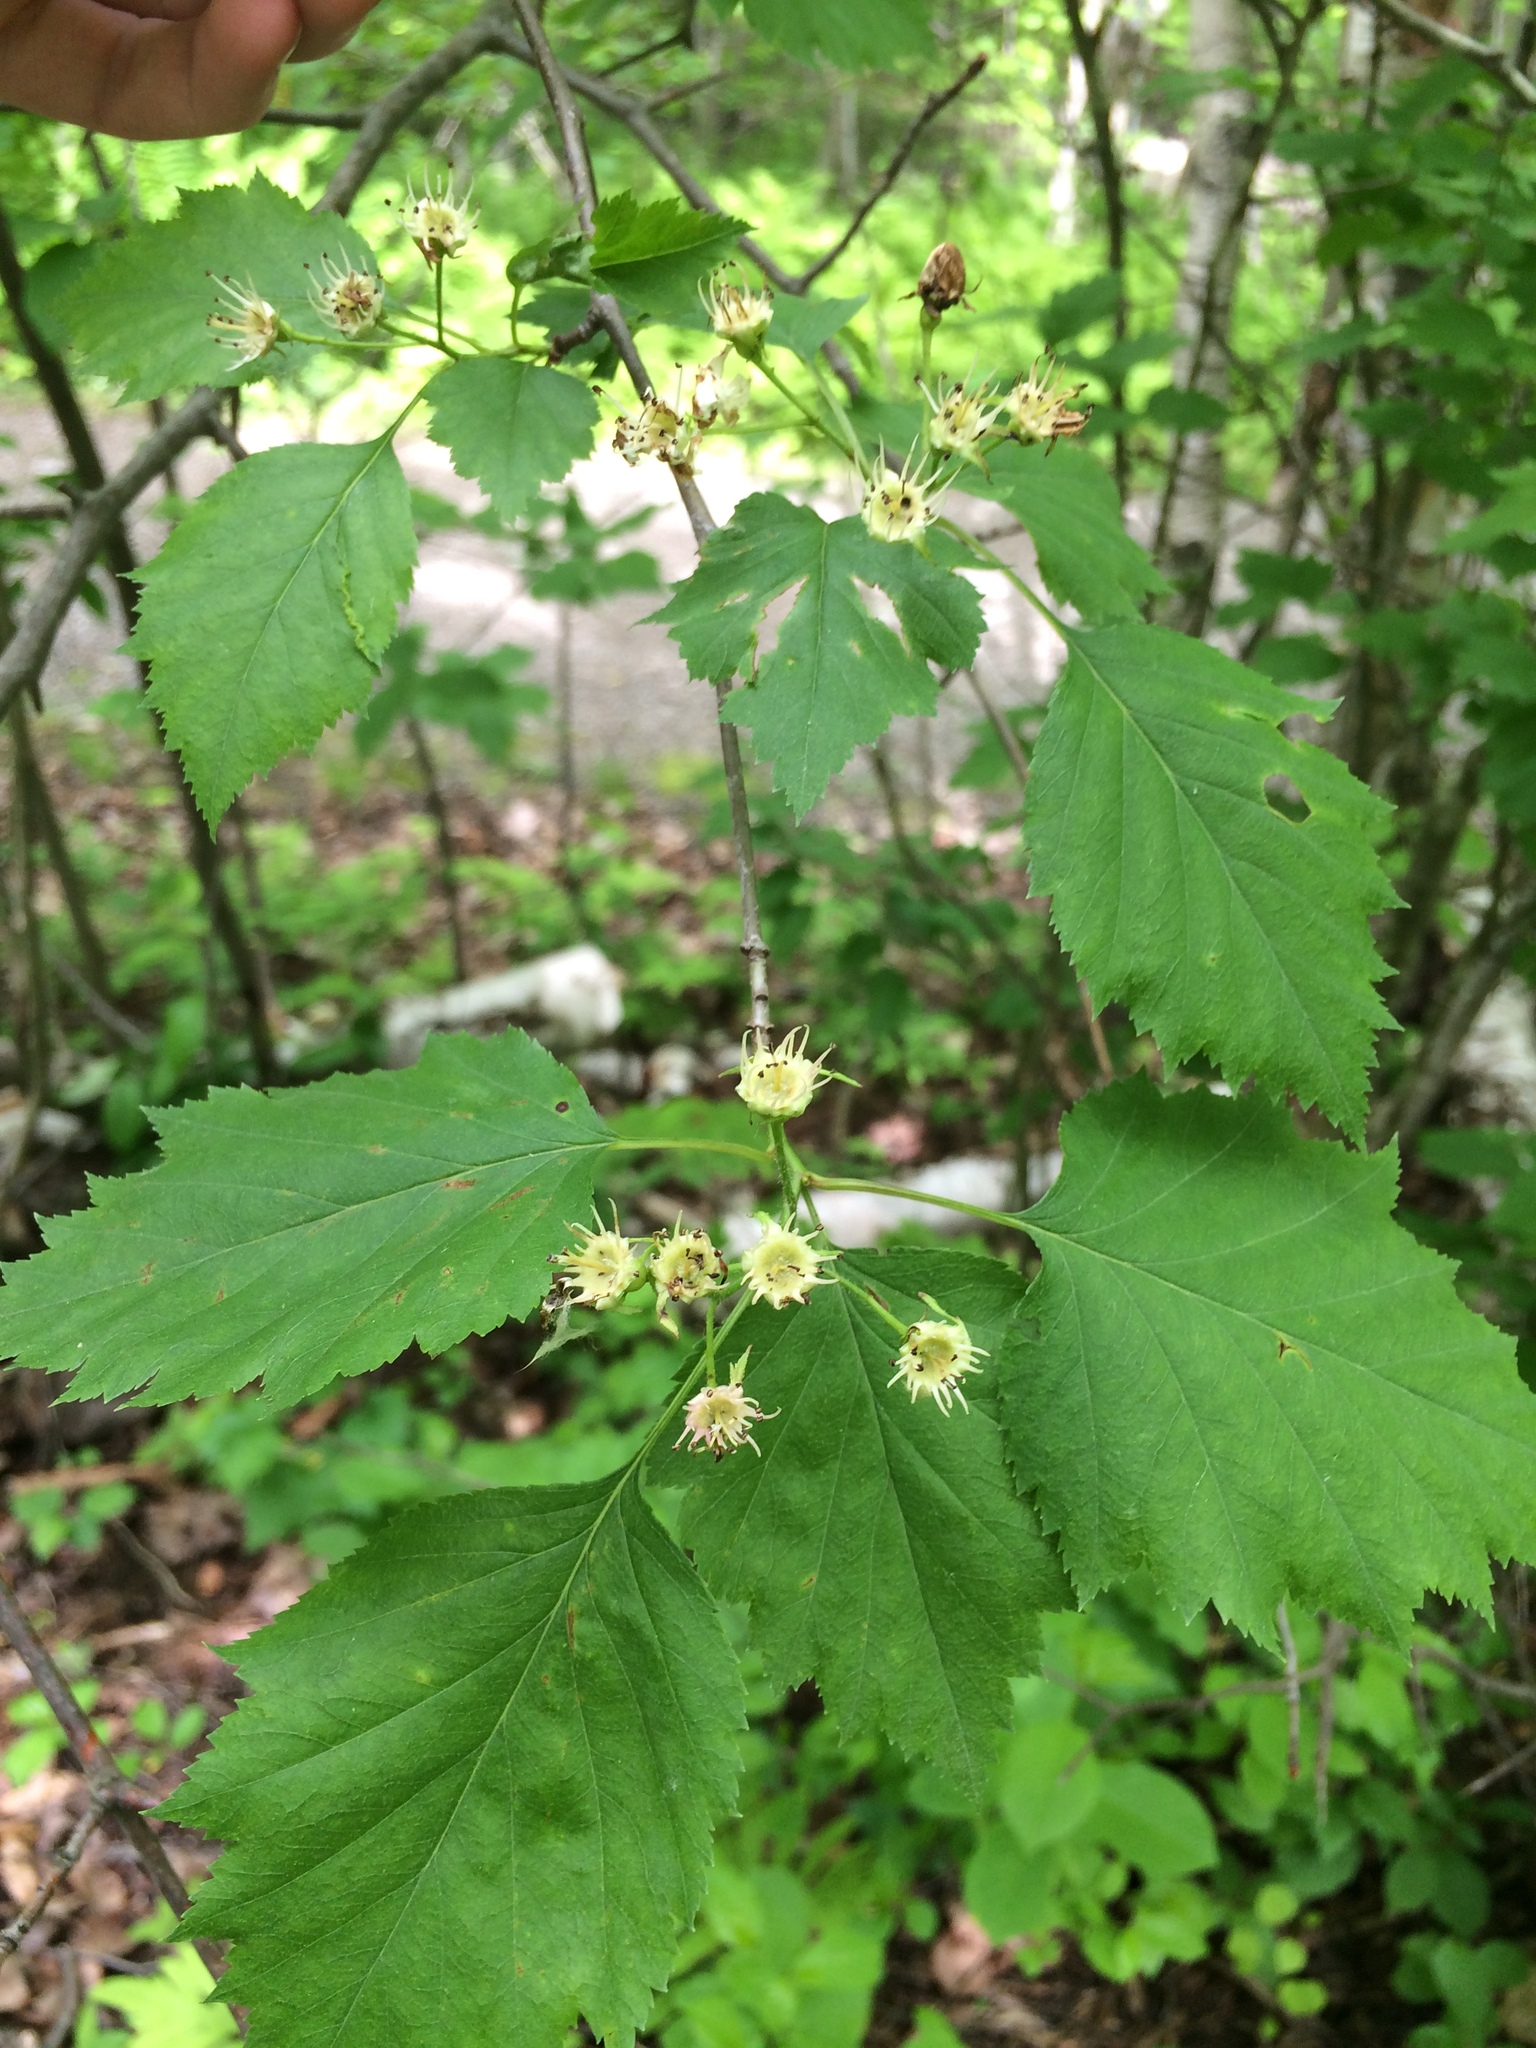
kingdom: Plantae
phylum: Tracheophyta
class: Magnoliopsida
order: Rosales
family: Rosaceae
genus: Crataegus
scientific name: Crataegus schuettei
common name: Schuette's hawthorn
